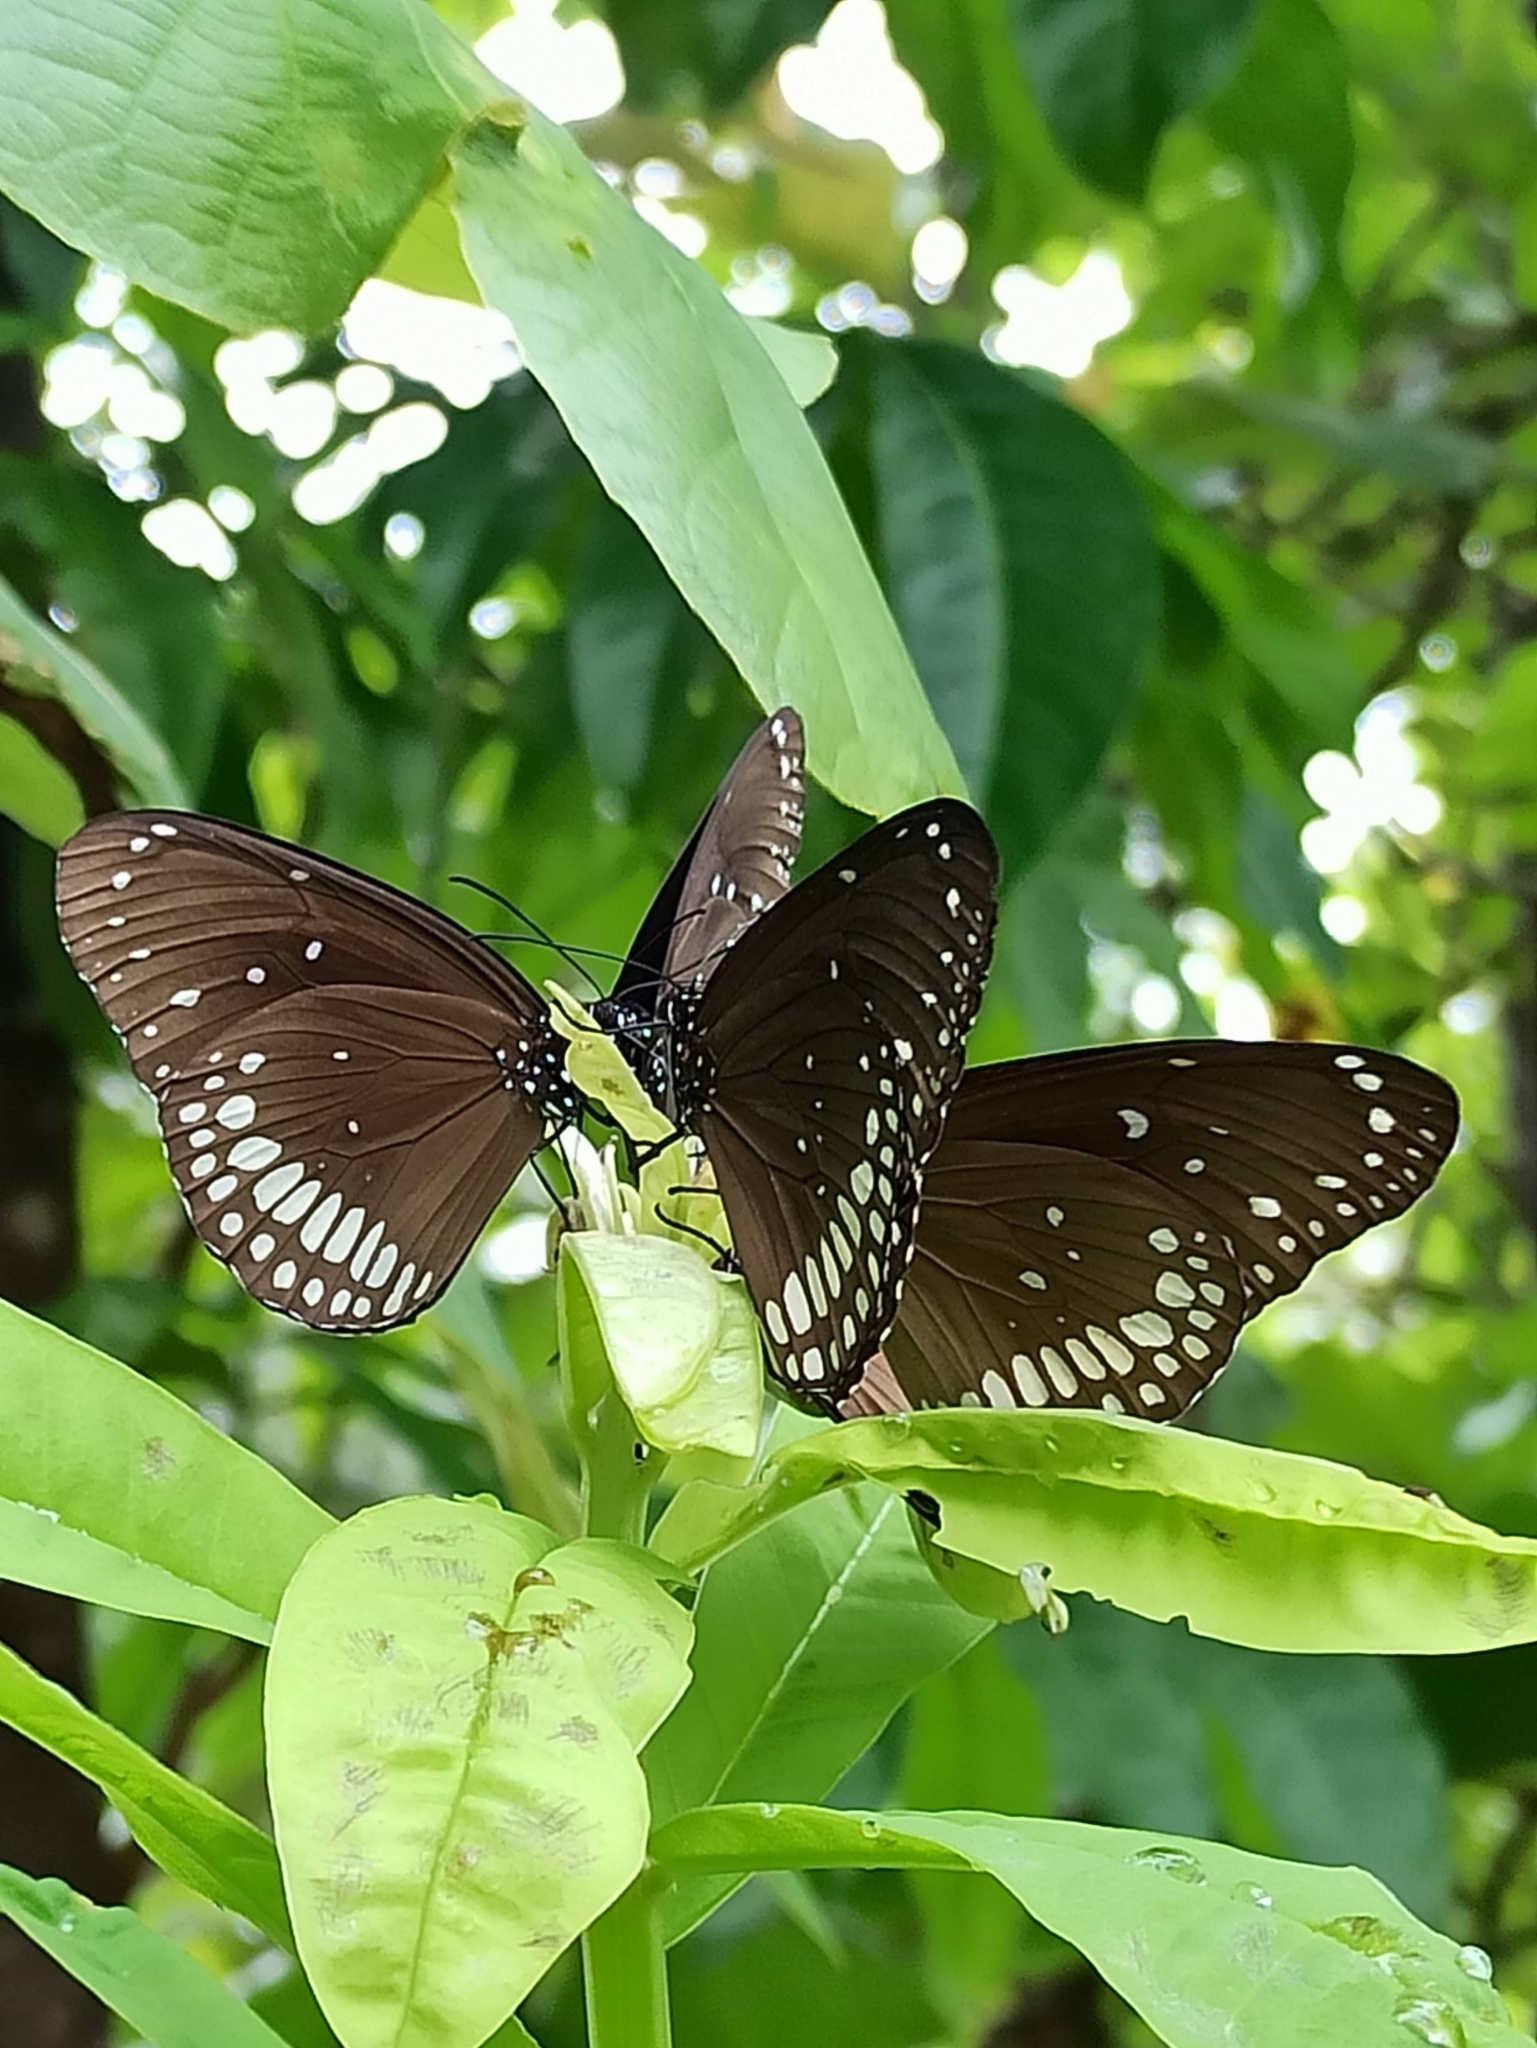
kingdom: Animalia
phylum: Arthropoda
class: Insecta
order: Lepidoptera
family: Nymphalidae
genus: Euploea
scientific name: Euploea core
